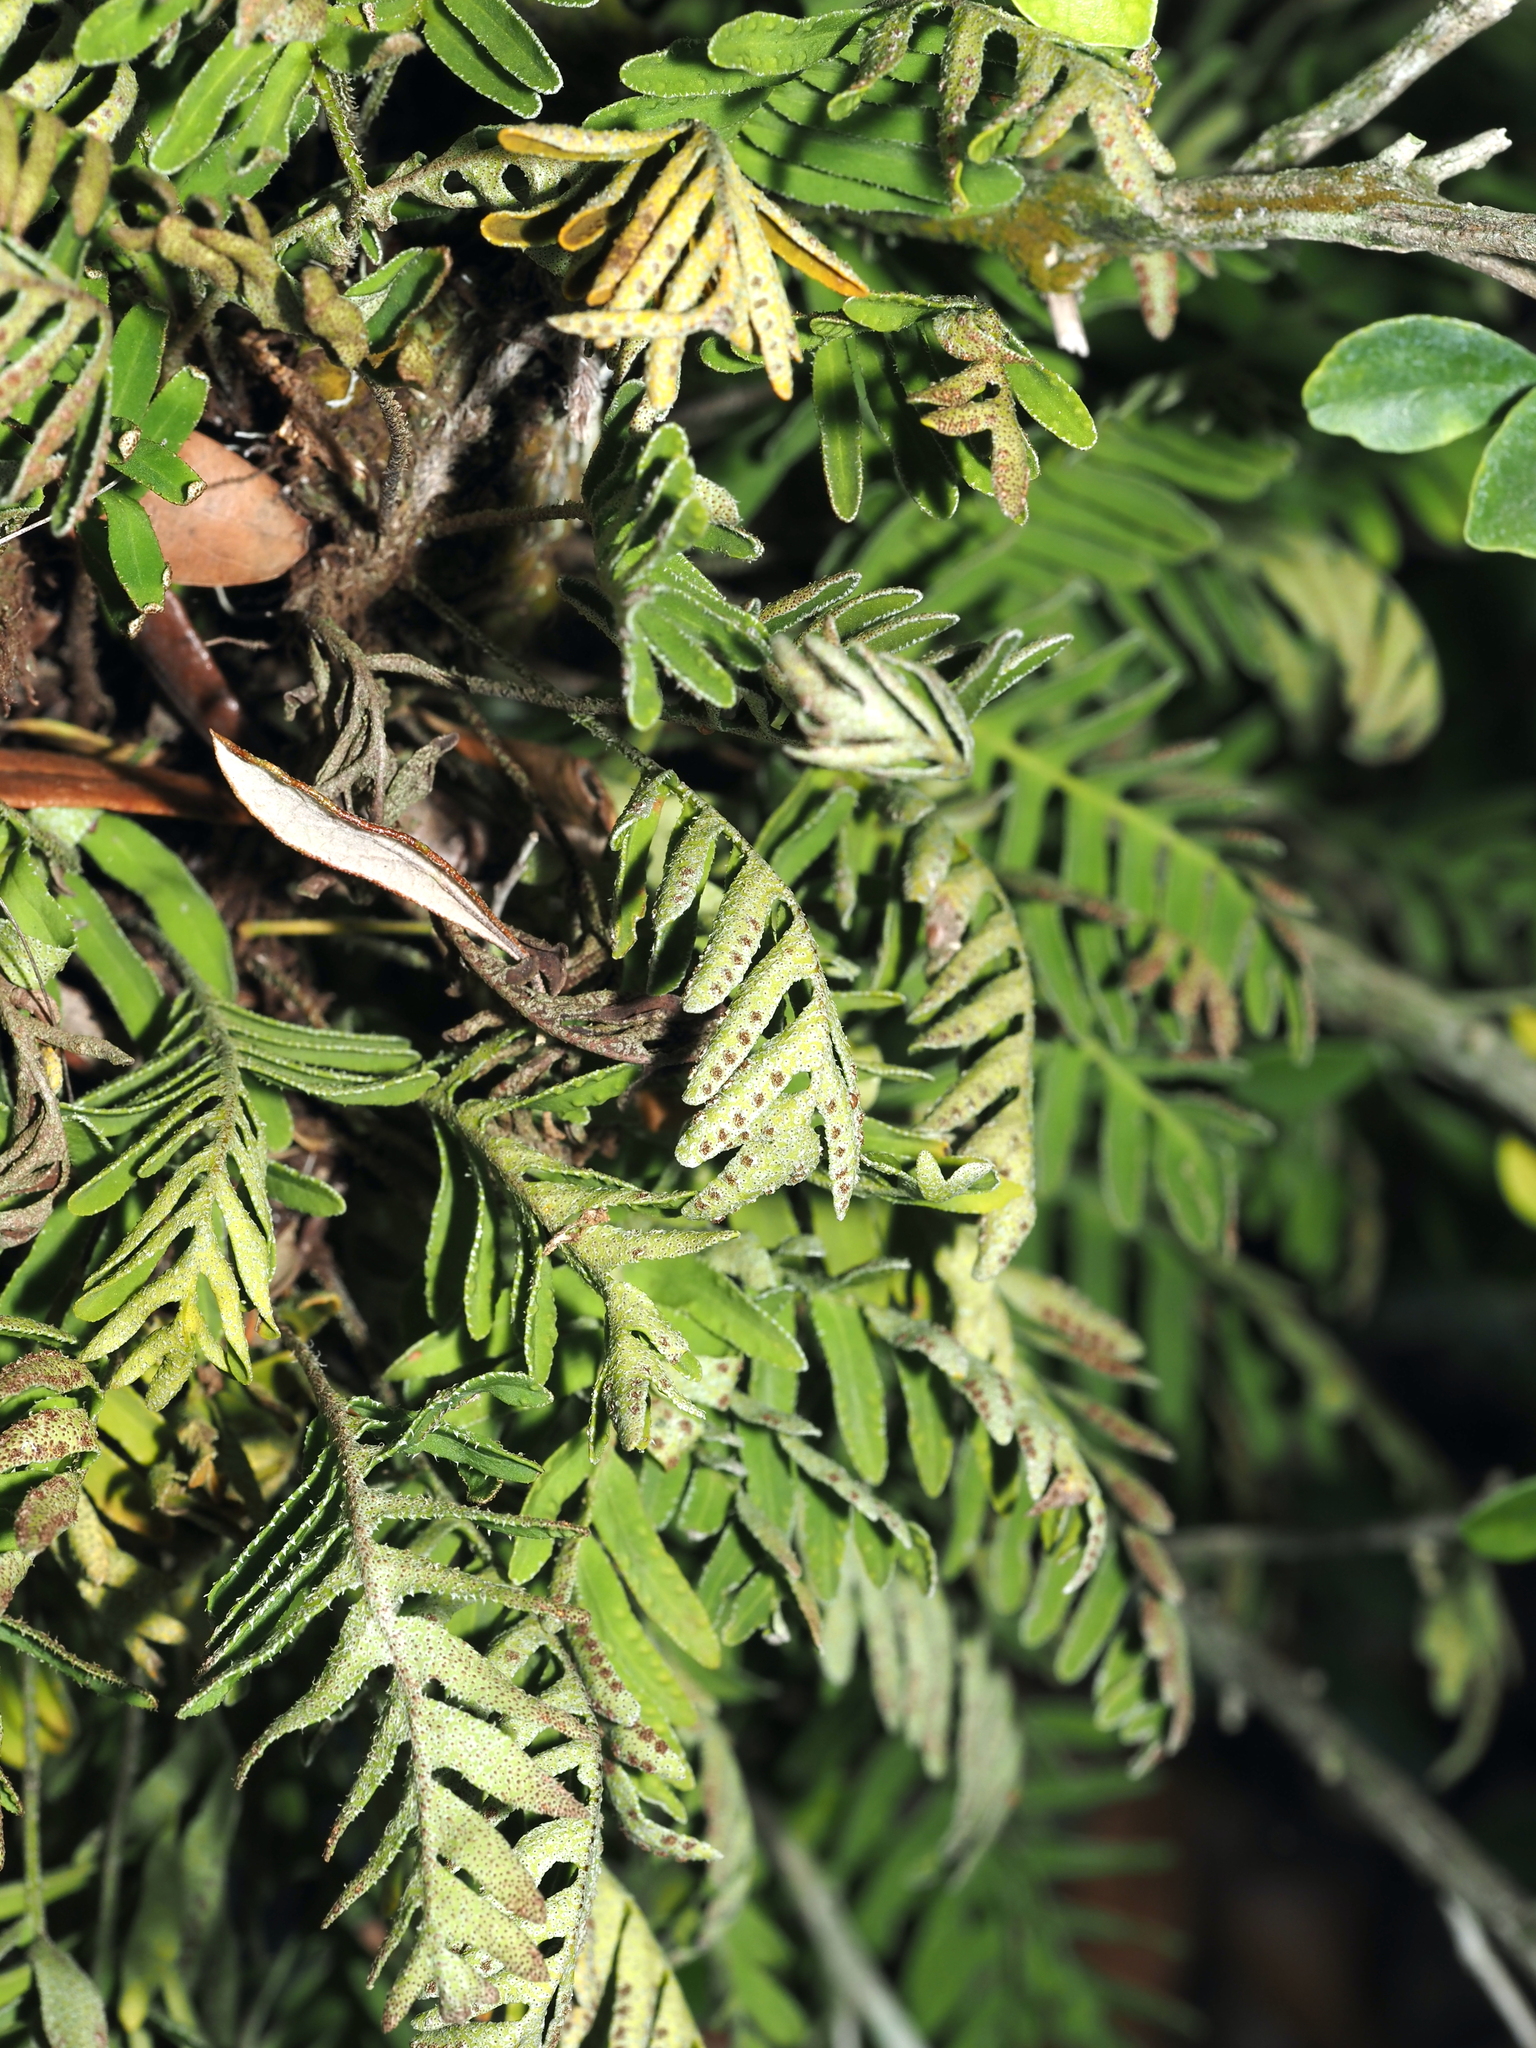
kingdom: Plantae
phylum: Tracheophyta
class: Polypodiopsida
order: Polypodiales
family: Polypodiaceae
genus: Pleopeltis
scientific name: Pleopeltis michauxiana
